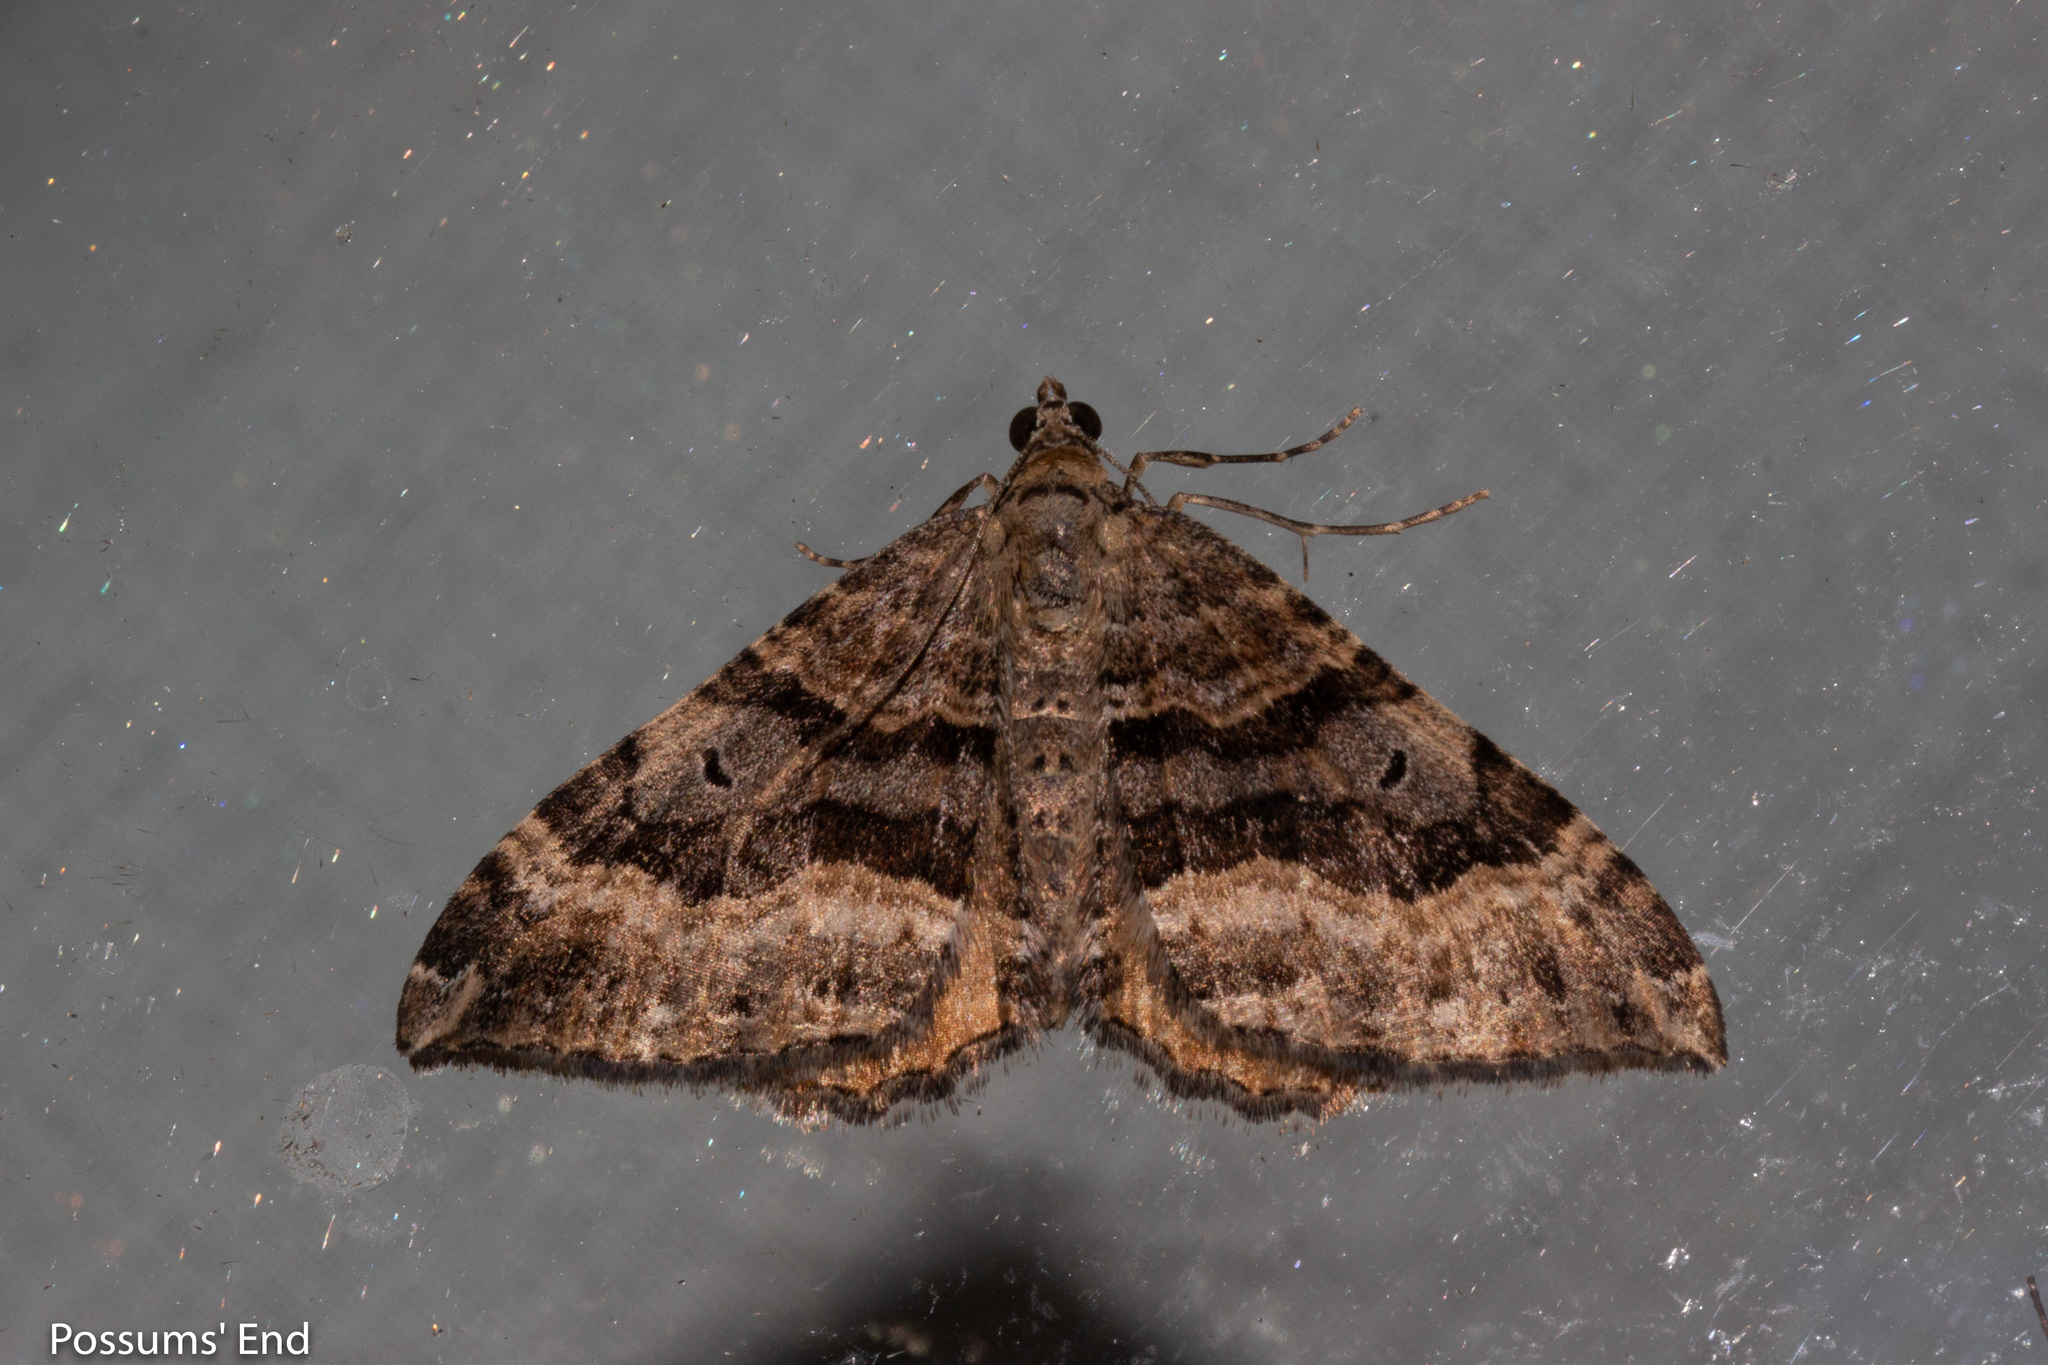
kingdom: Animalia
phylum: Arthropoda
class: Insecta
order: Lepidoptera
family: Geometridae
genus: Hydriomena
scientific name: Hydriomena deltoidata
